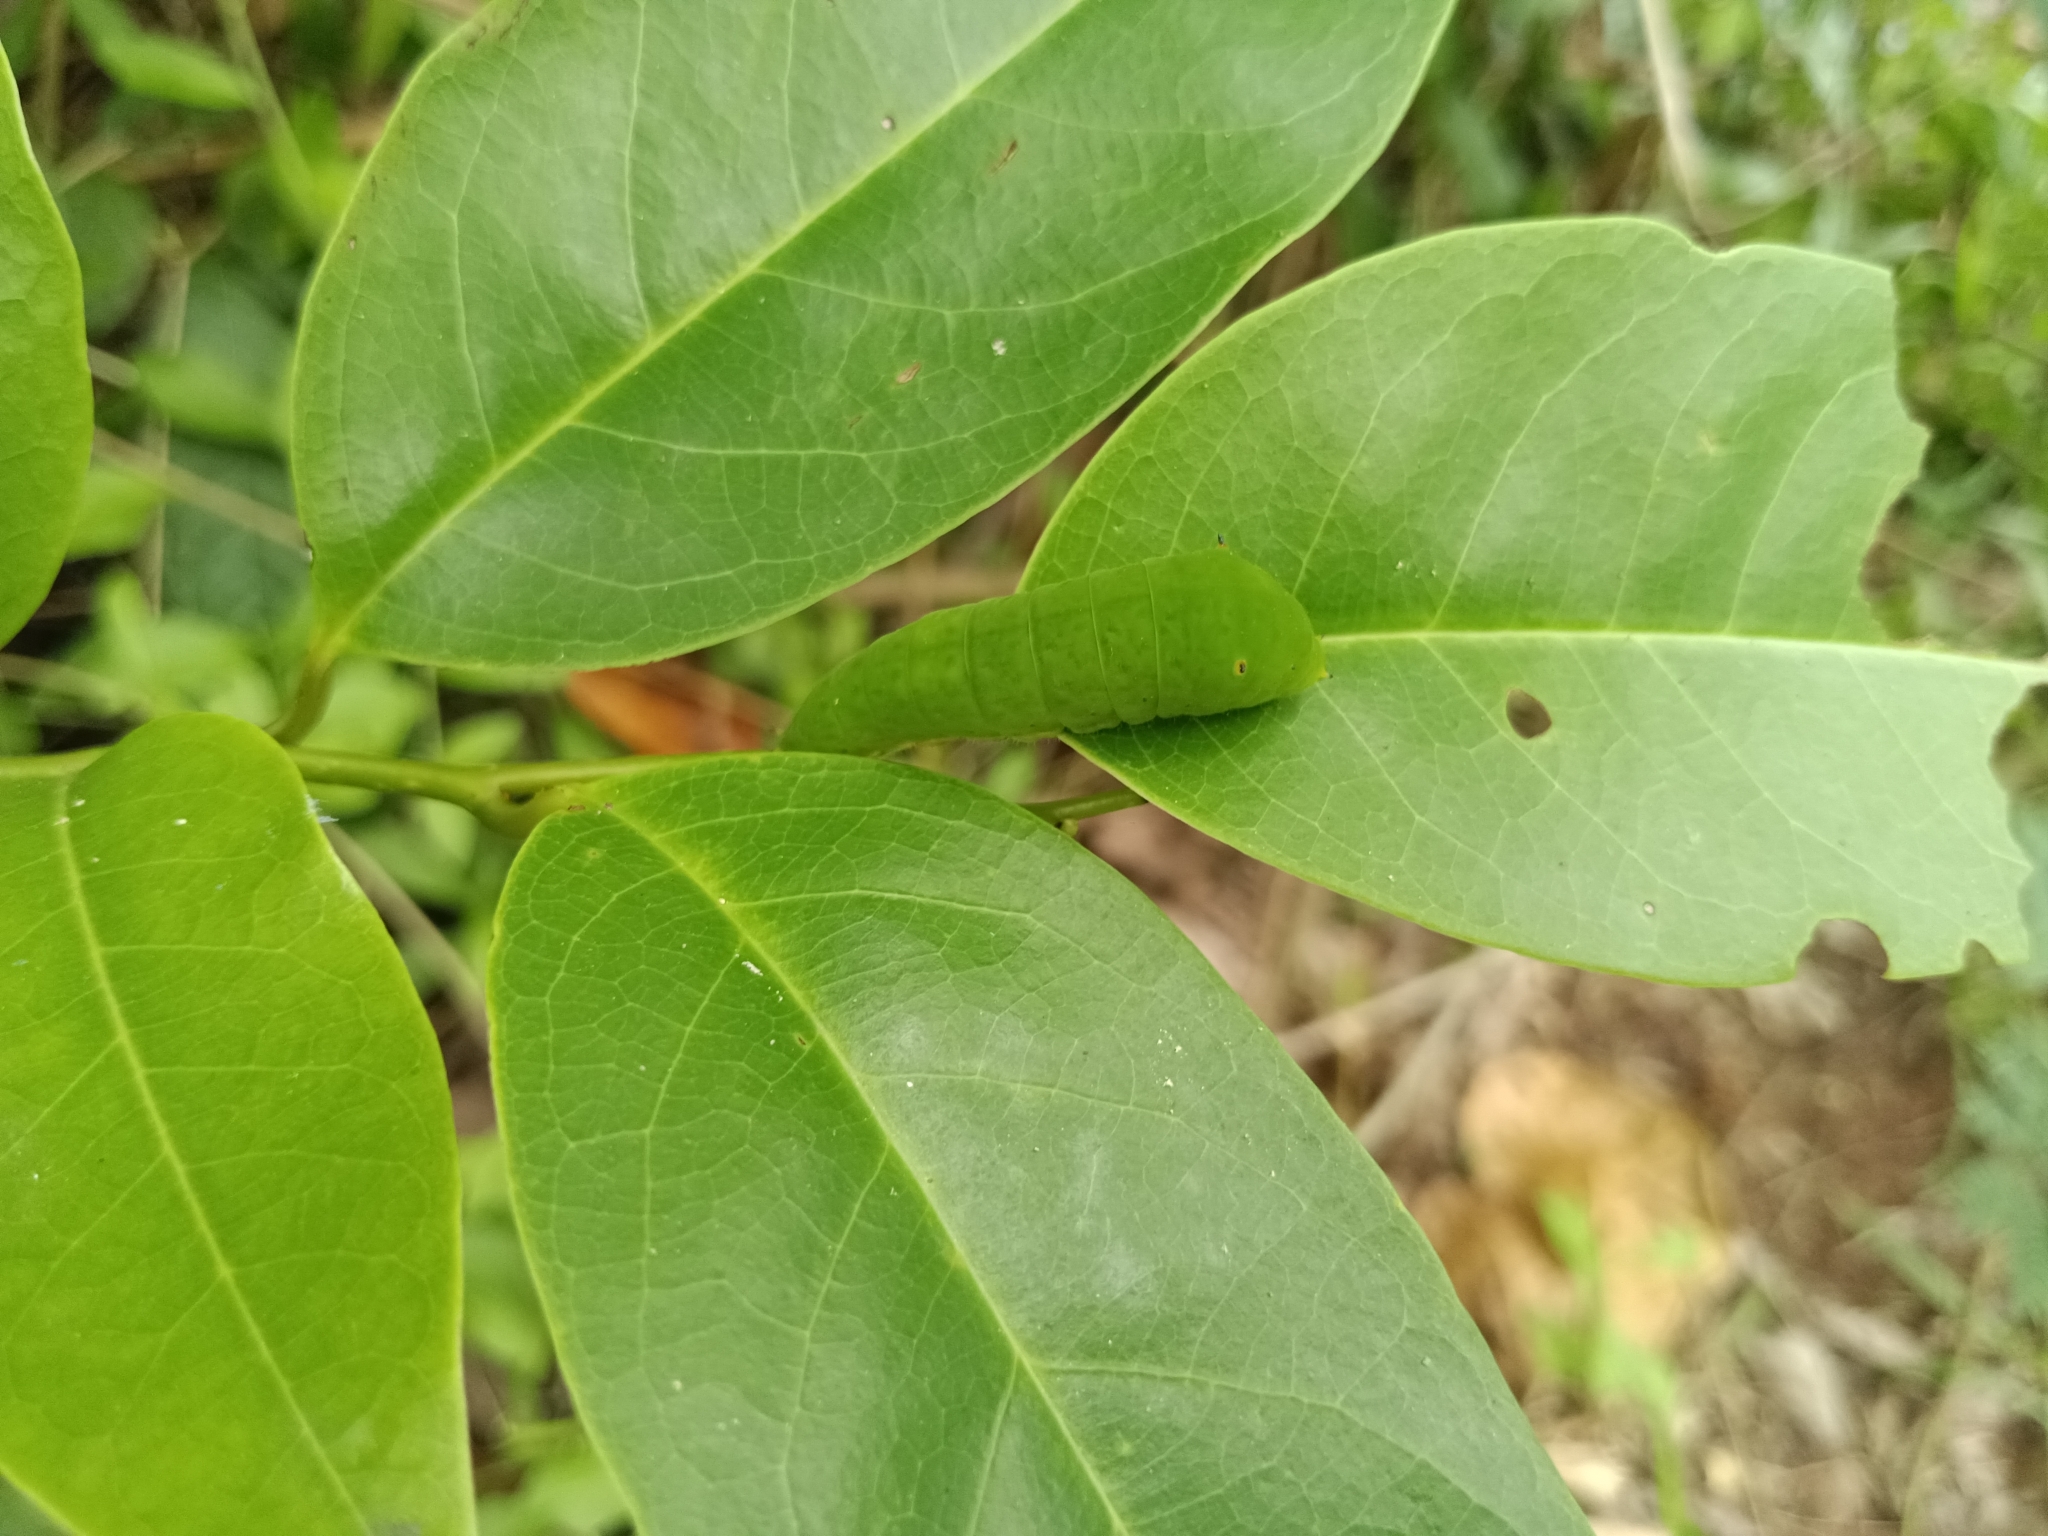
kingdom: Animalia
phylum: Arthropoda
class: Insecta
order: Lepidoptera
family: Papilionidae
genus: Graphium
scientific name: Graphium agamemnon
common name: Tailed jay
